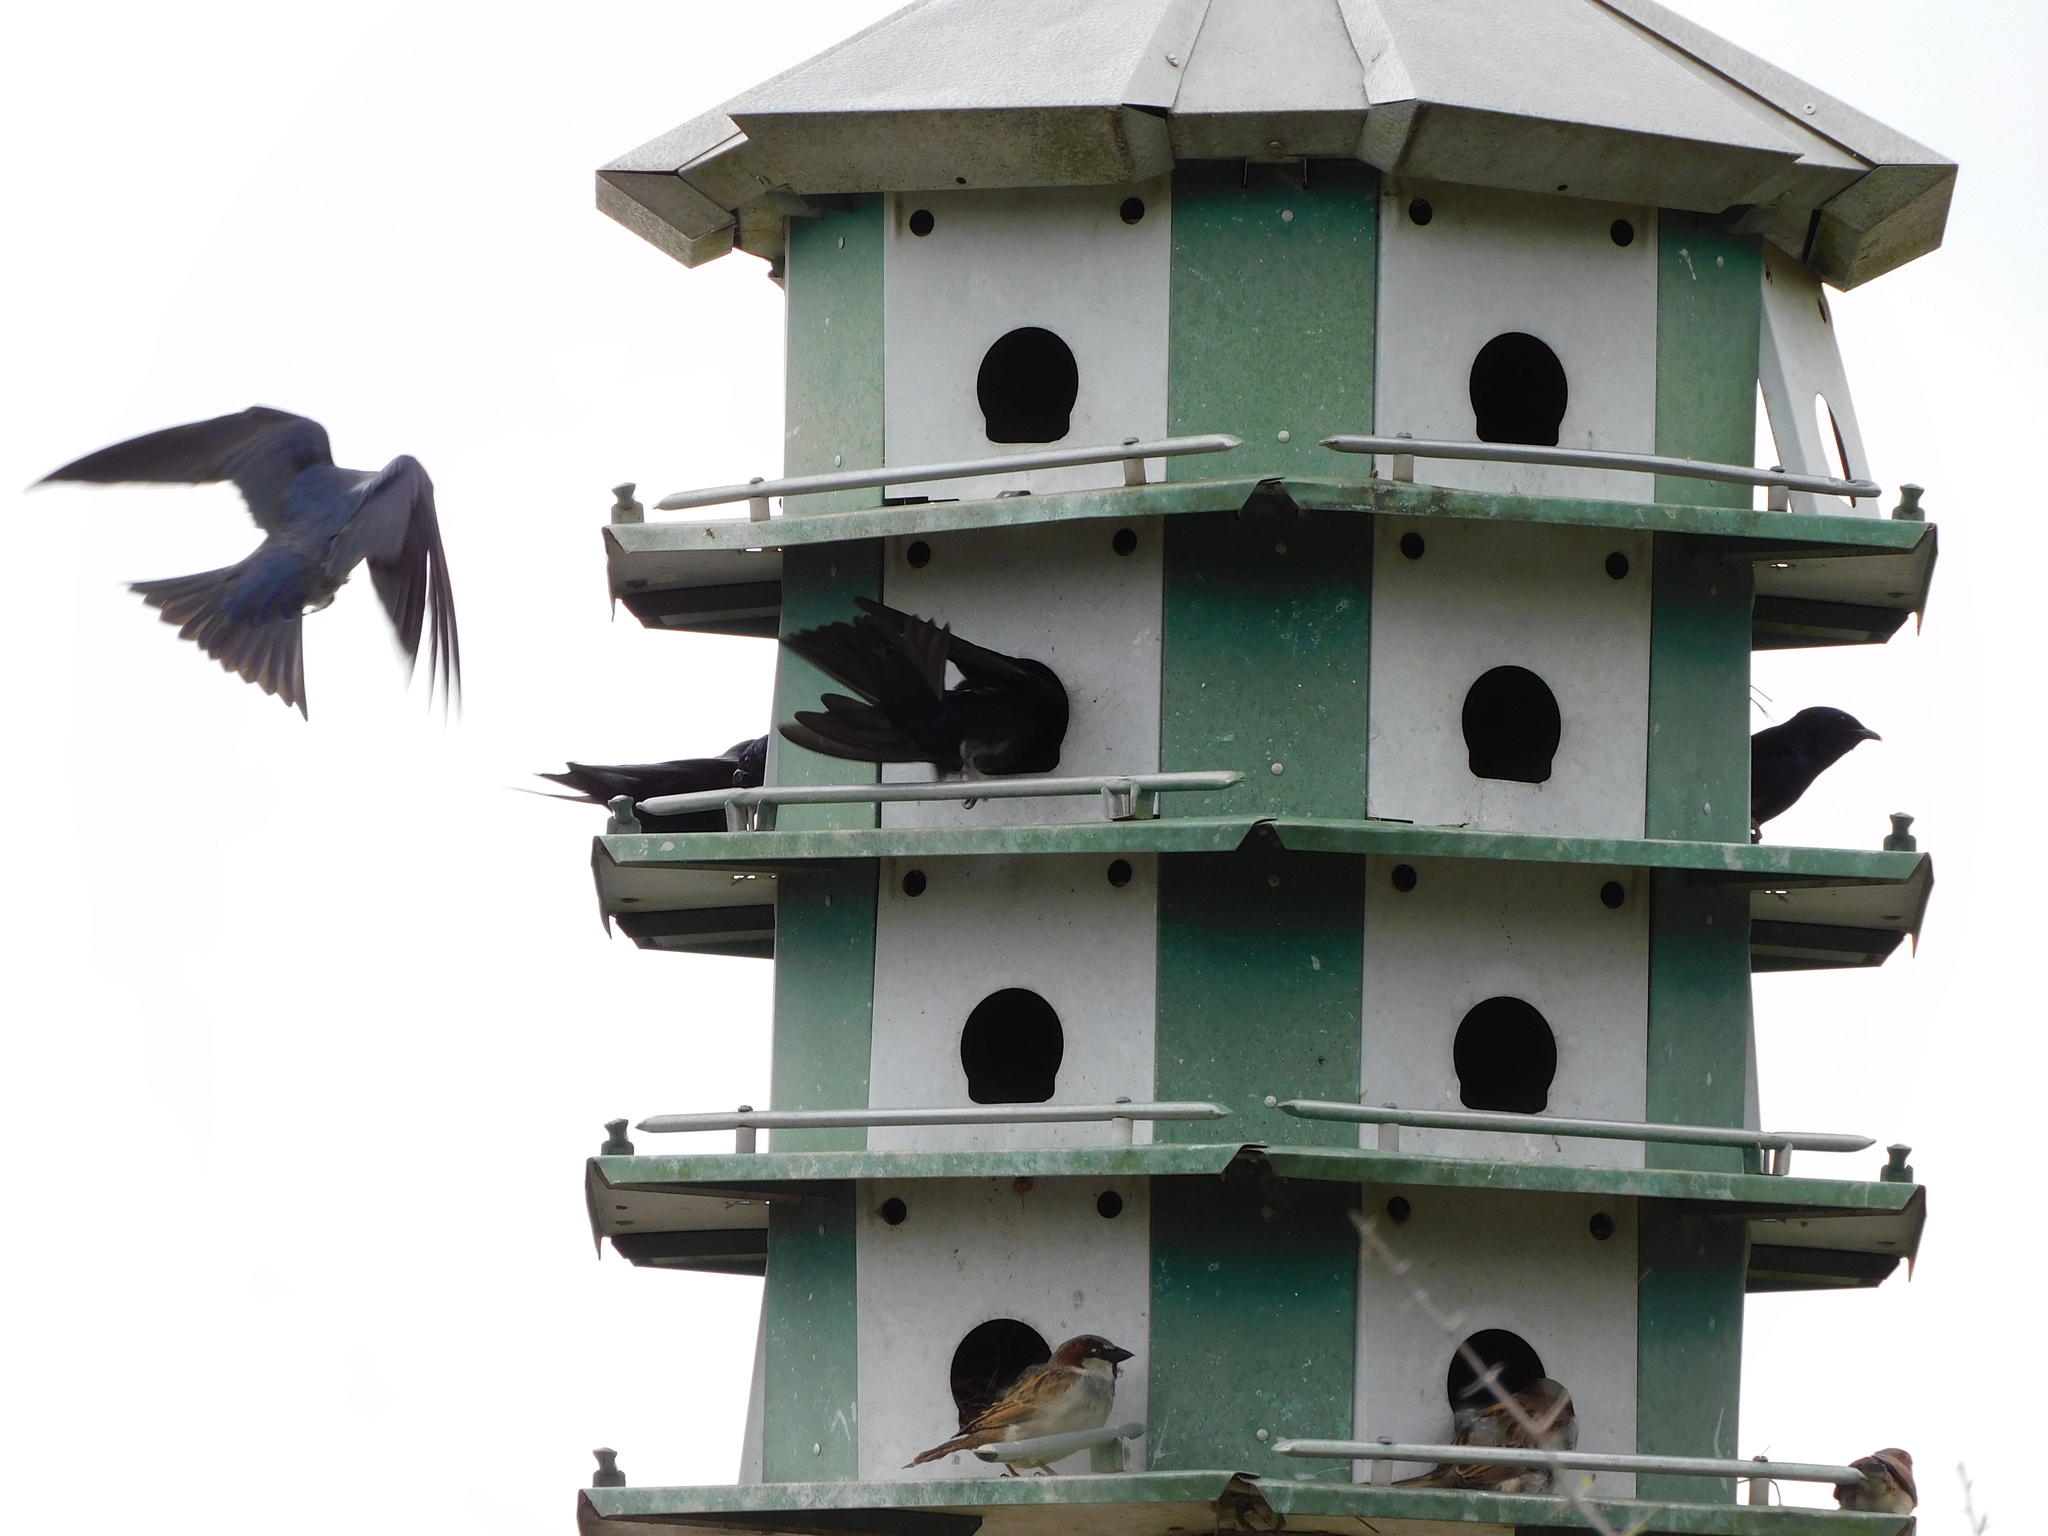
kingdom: Animalia
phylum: Chordata
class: Aves
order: Passeriformes
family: Hirundinidae
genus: Progne
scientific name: Progne subis
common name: Purple martin
